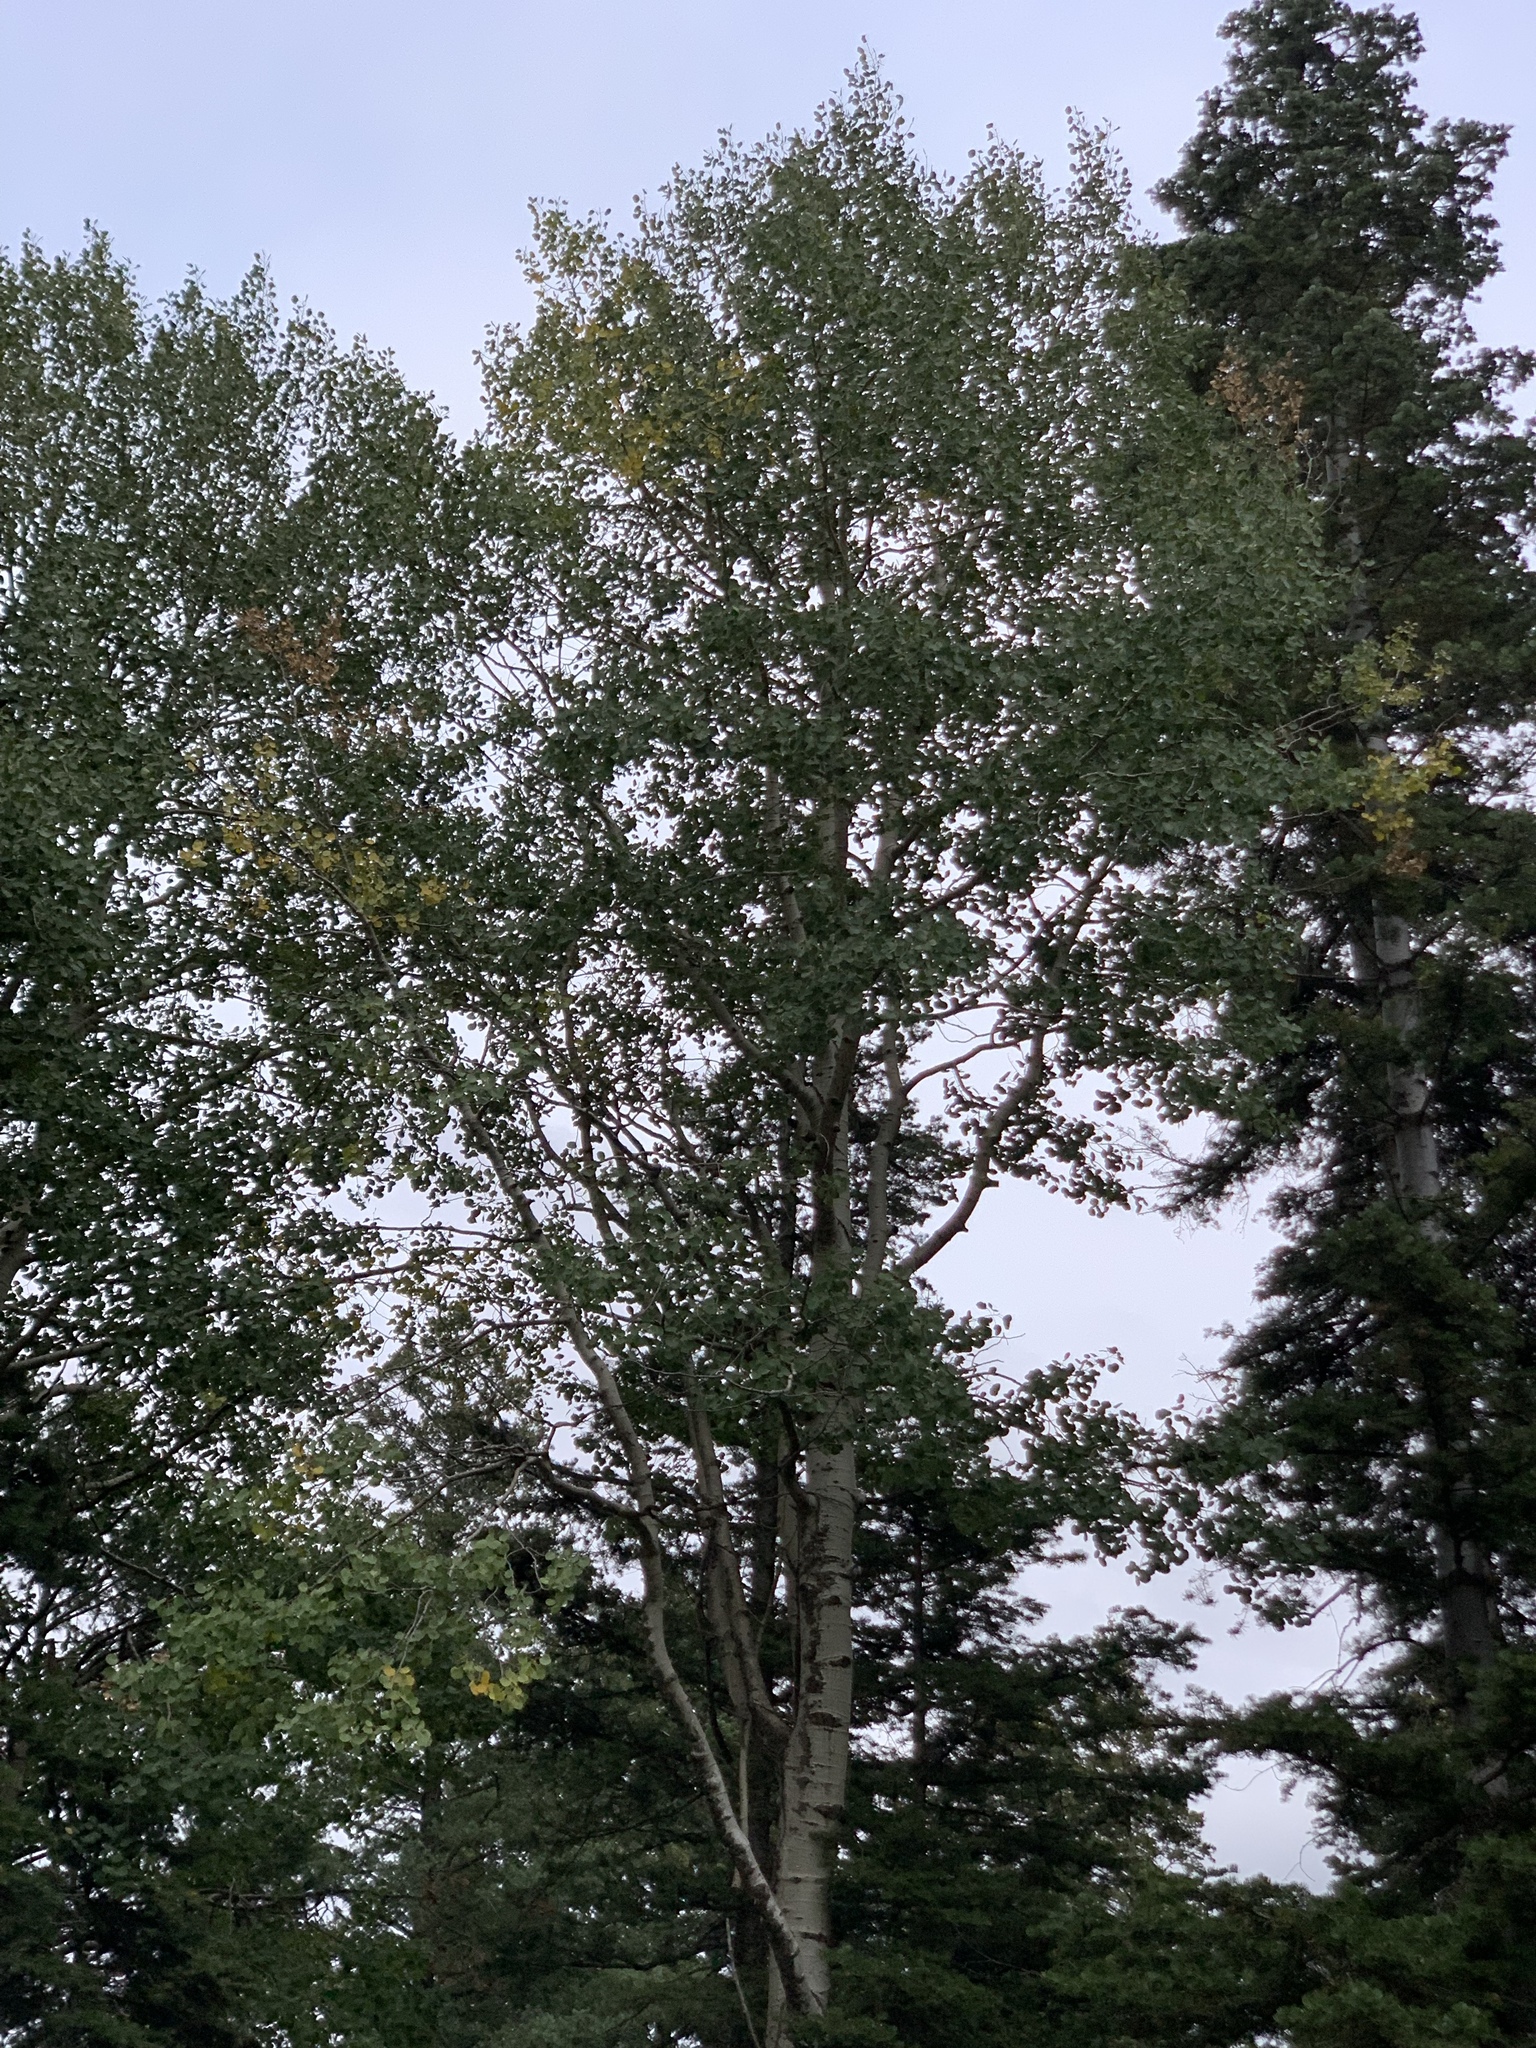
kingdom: Plantae
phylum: Tracheophyta
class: Magnoliopsida
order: Malpighiales
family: Salicaceae
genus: Populus
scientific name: Populus tremuloides
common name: Quaking aspen
